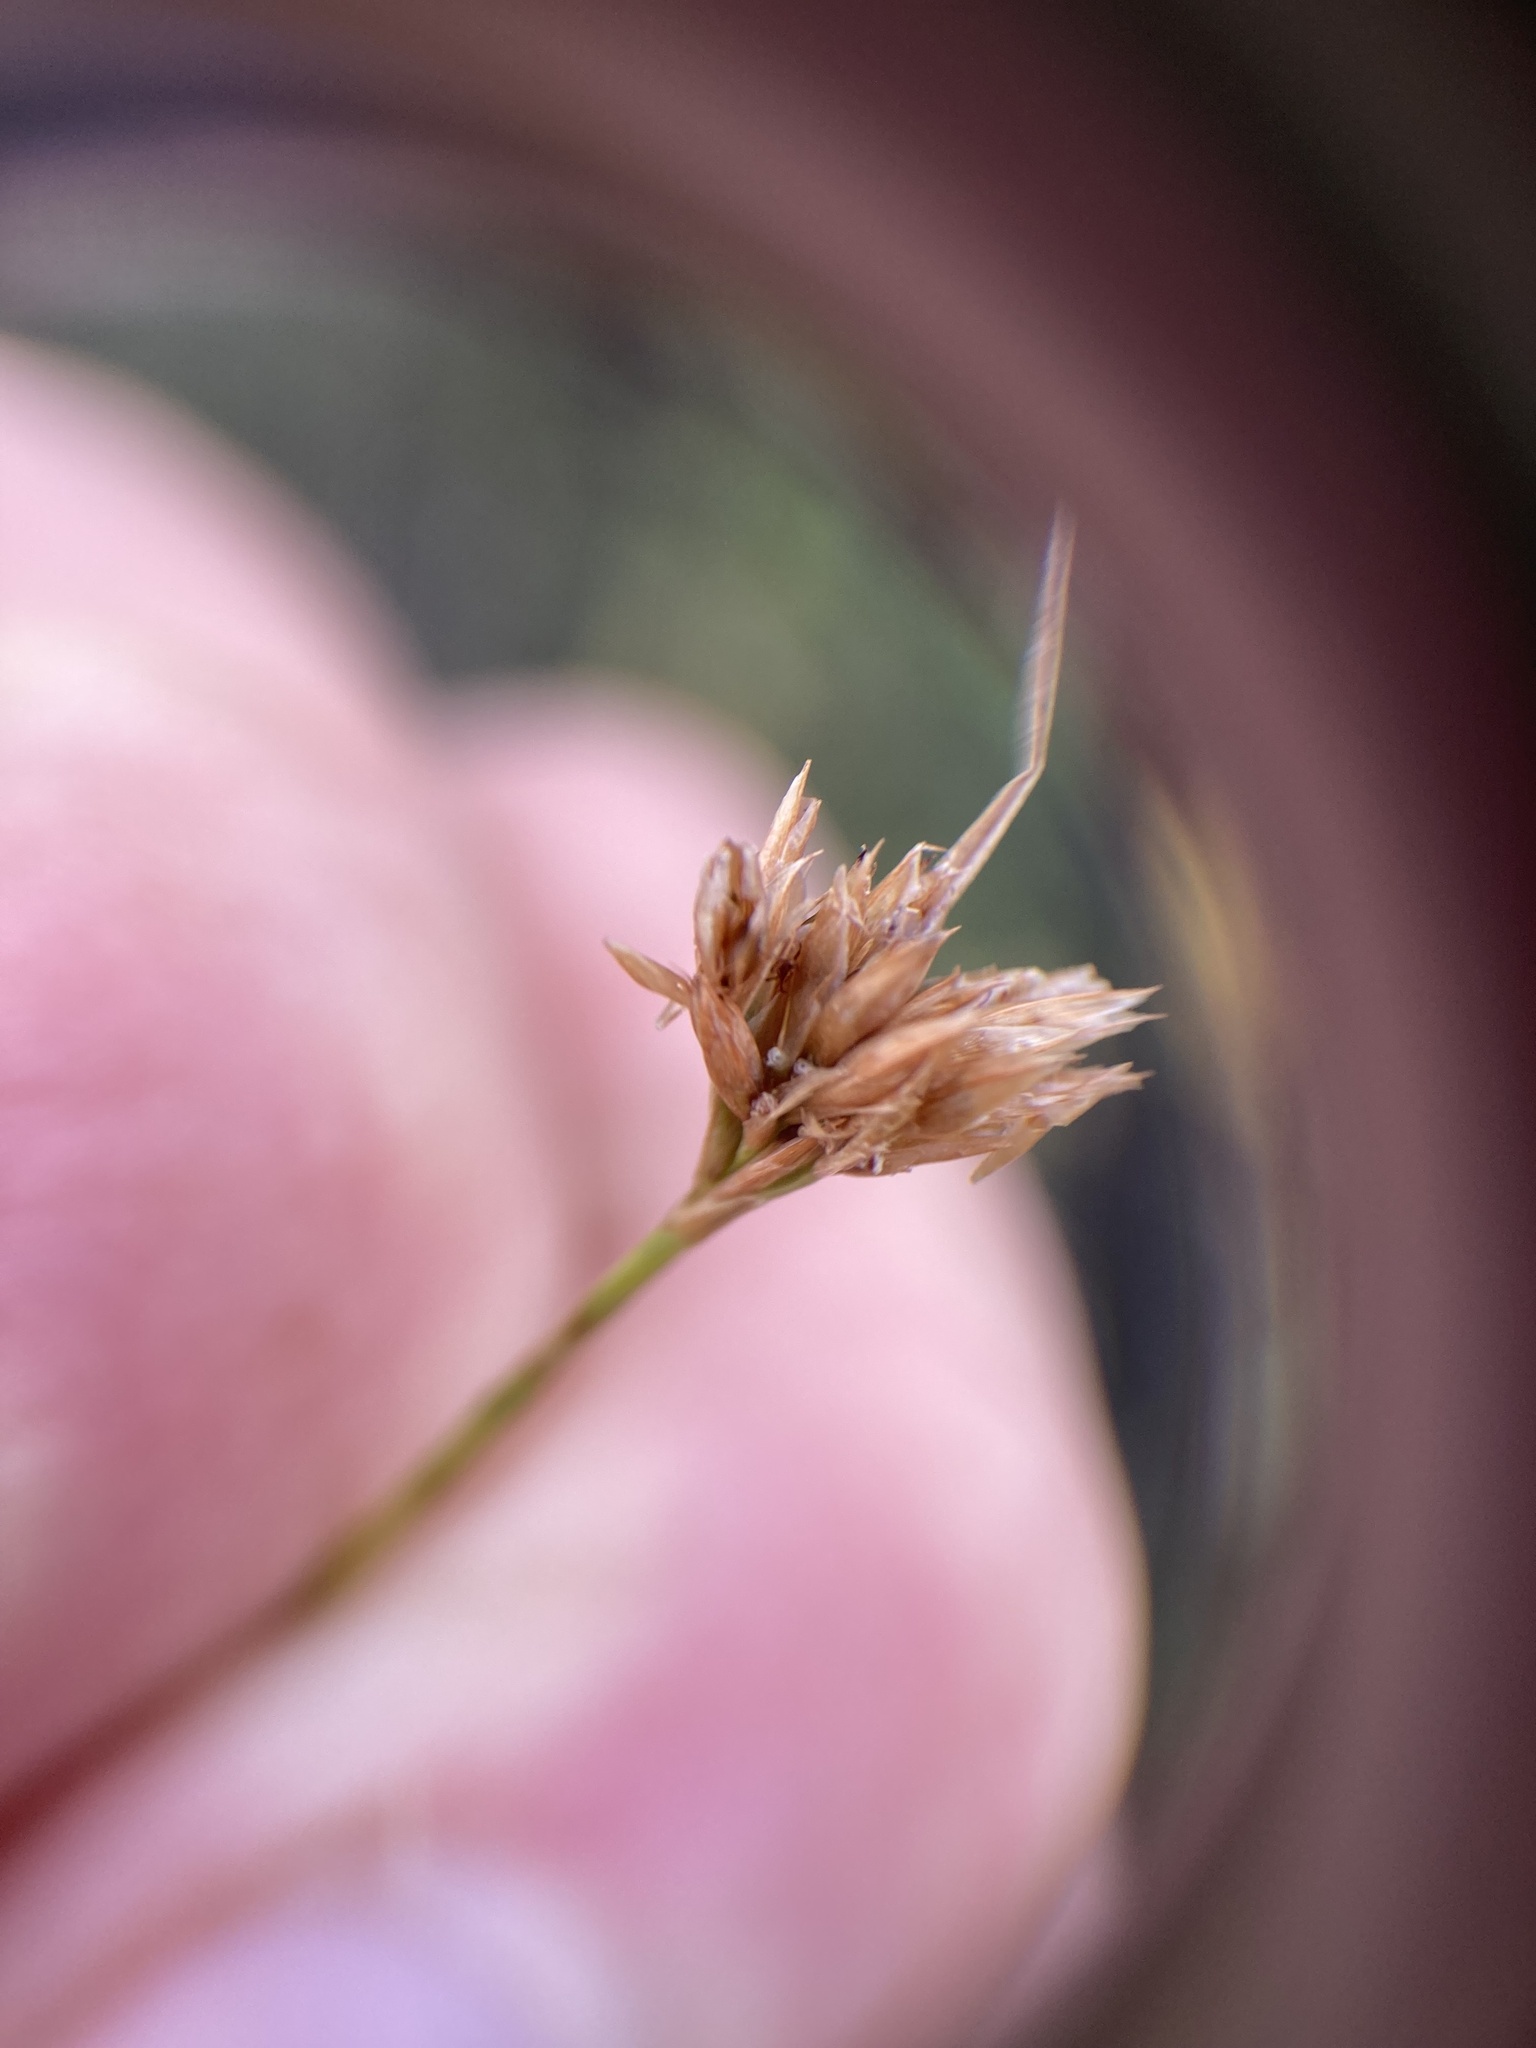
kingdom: Plantae
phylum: Tracheophyta
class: Liliopsida
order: Poales
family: Cyperaceae
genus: Rhynchospora
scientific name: Rhynchospora alba
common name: White beak-sedge
